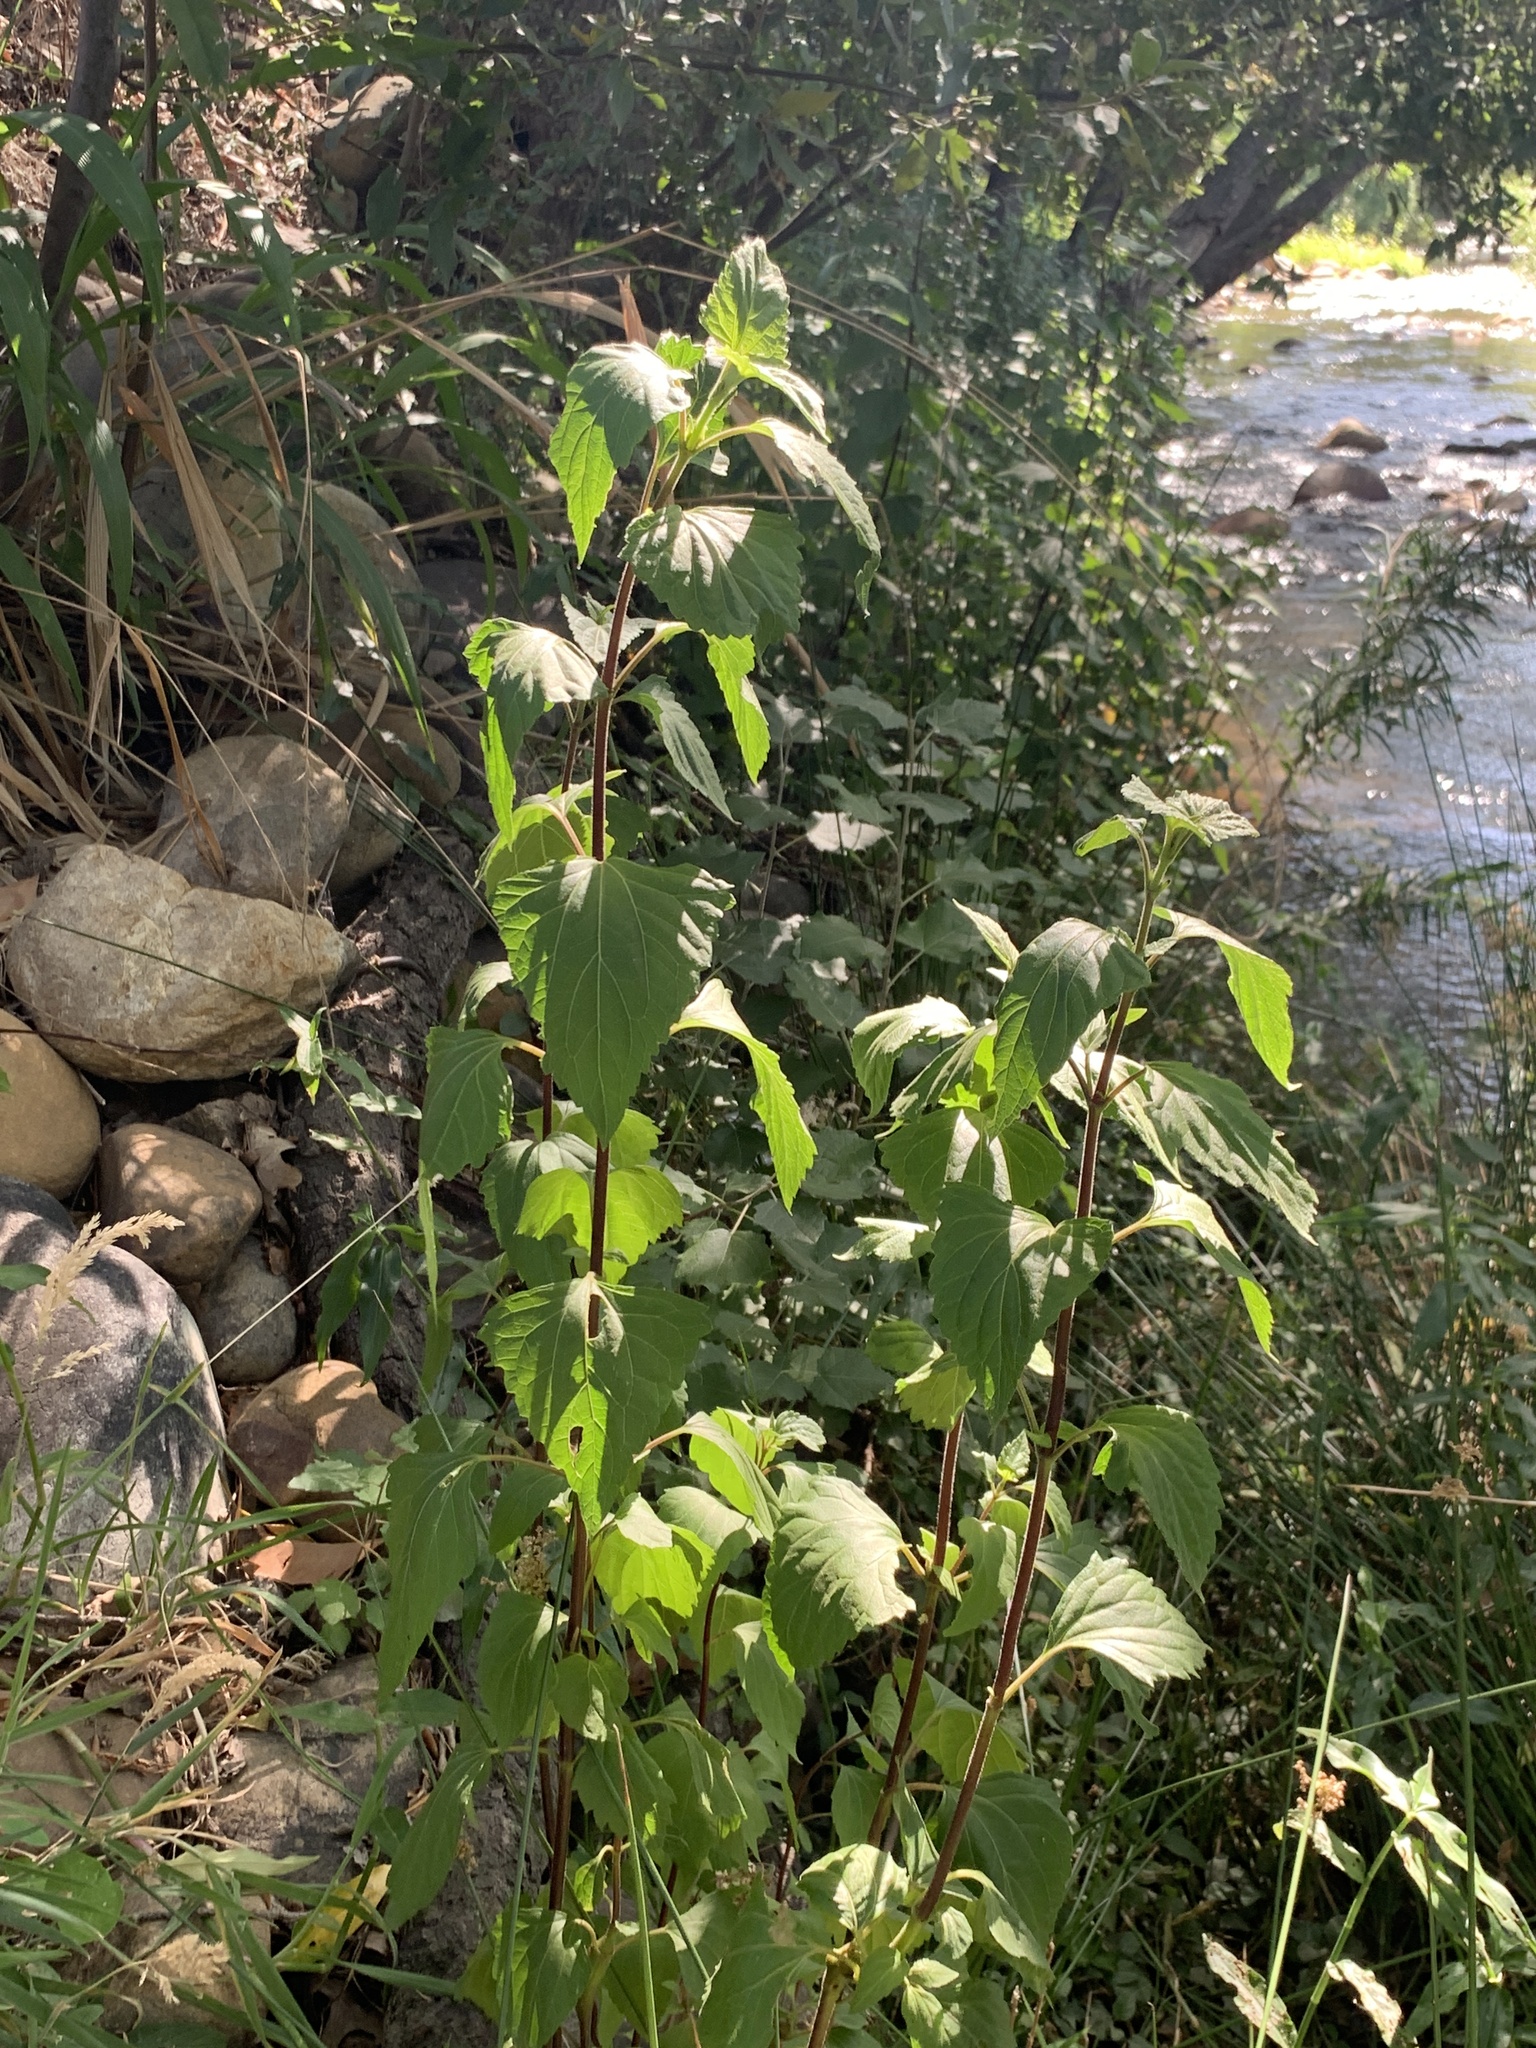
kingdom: Plantae
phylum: Tracheophyta
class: Magnoliopsida
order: Asterales
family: Asteraceae
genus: Ageratina
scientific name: Ageratina adenophora
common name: Sticky snakeroot
